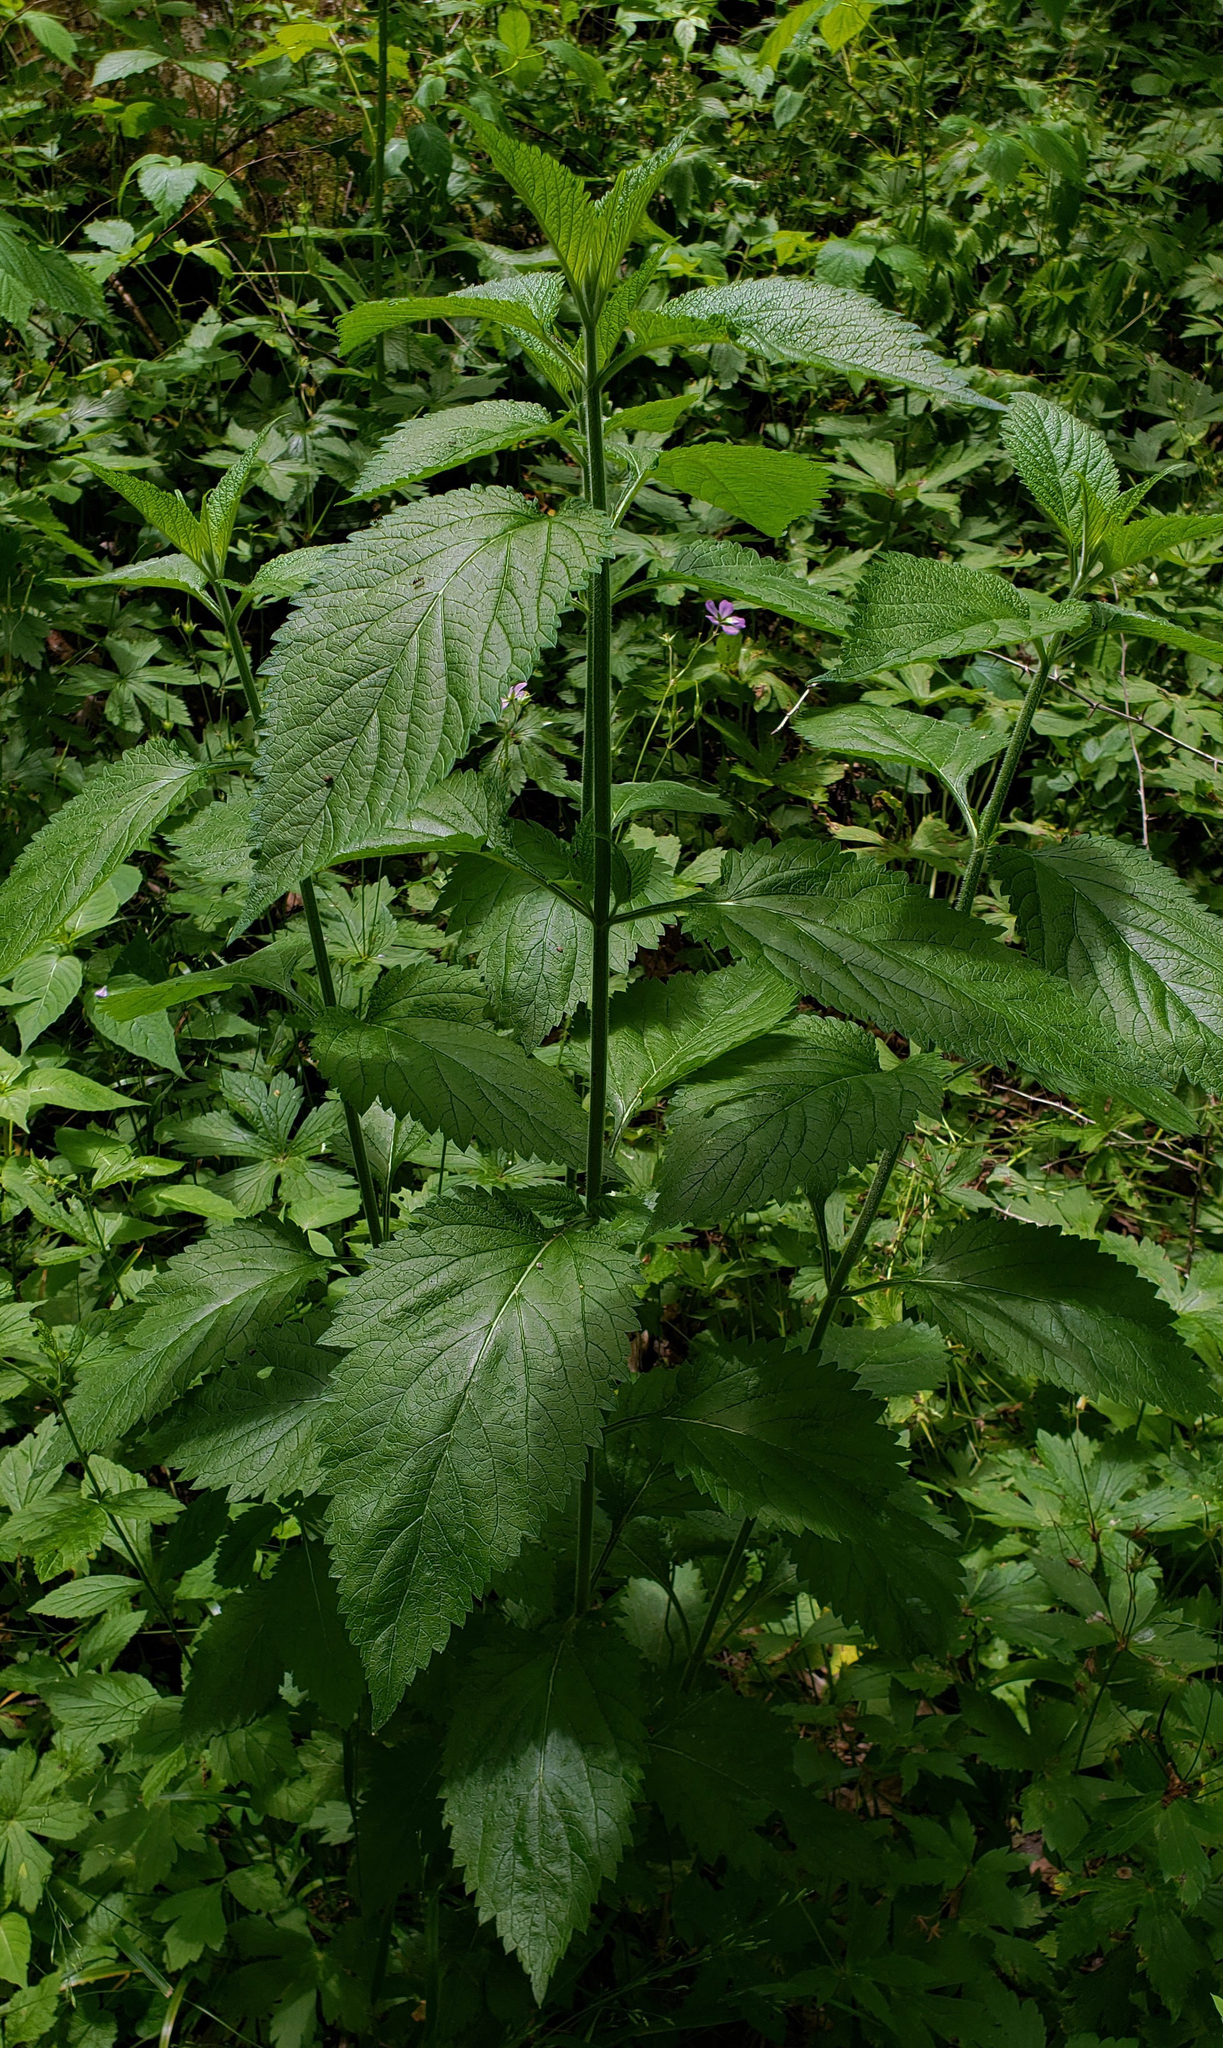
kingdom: Plantae
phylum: Tracheophyta
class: Magnoliopsida
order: Lamiales
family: Verbenaceae
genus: Verbena
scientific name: Verbena urticifolia
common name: Nettle-leaved vervain
